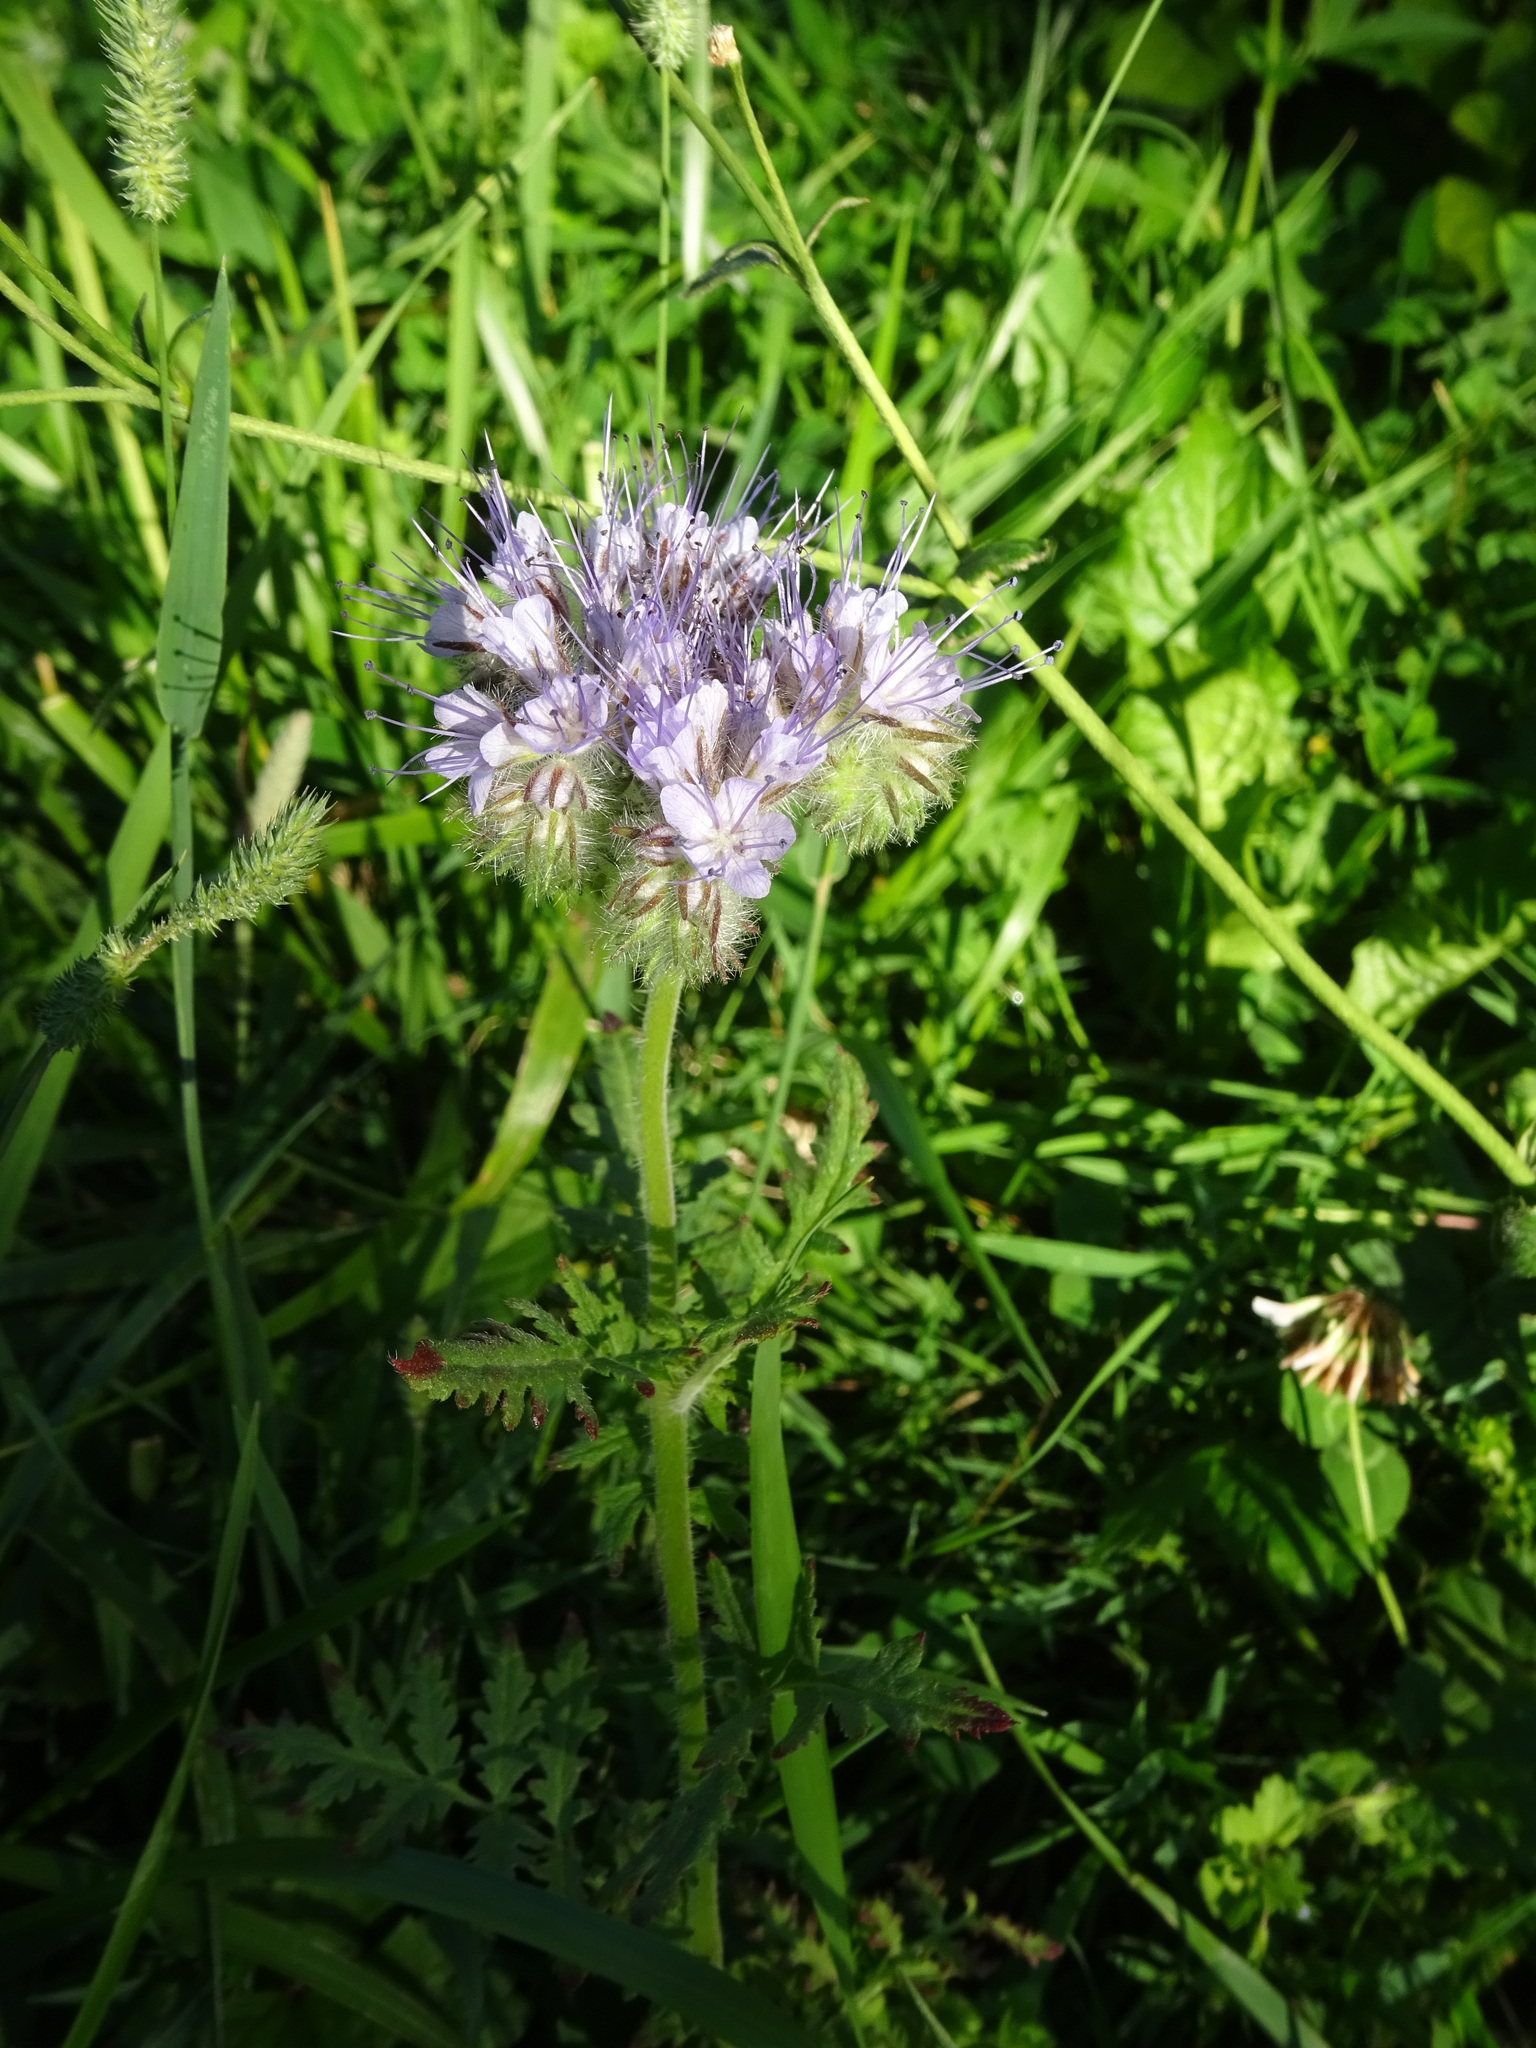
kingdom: Plantae
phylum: Tracheophyta
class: Magnoliopsida
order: Boraginales
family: Hydrophyllaceae
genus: Phacelia
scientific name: Phacelia tanacetifolia
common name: Phacelia
